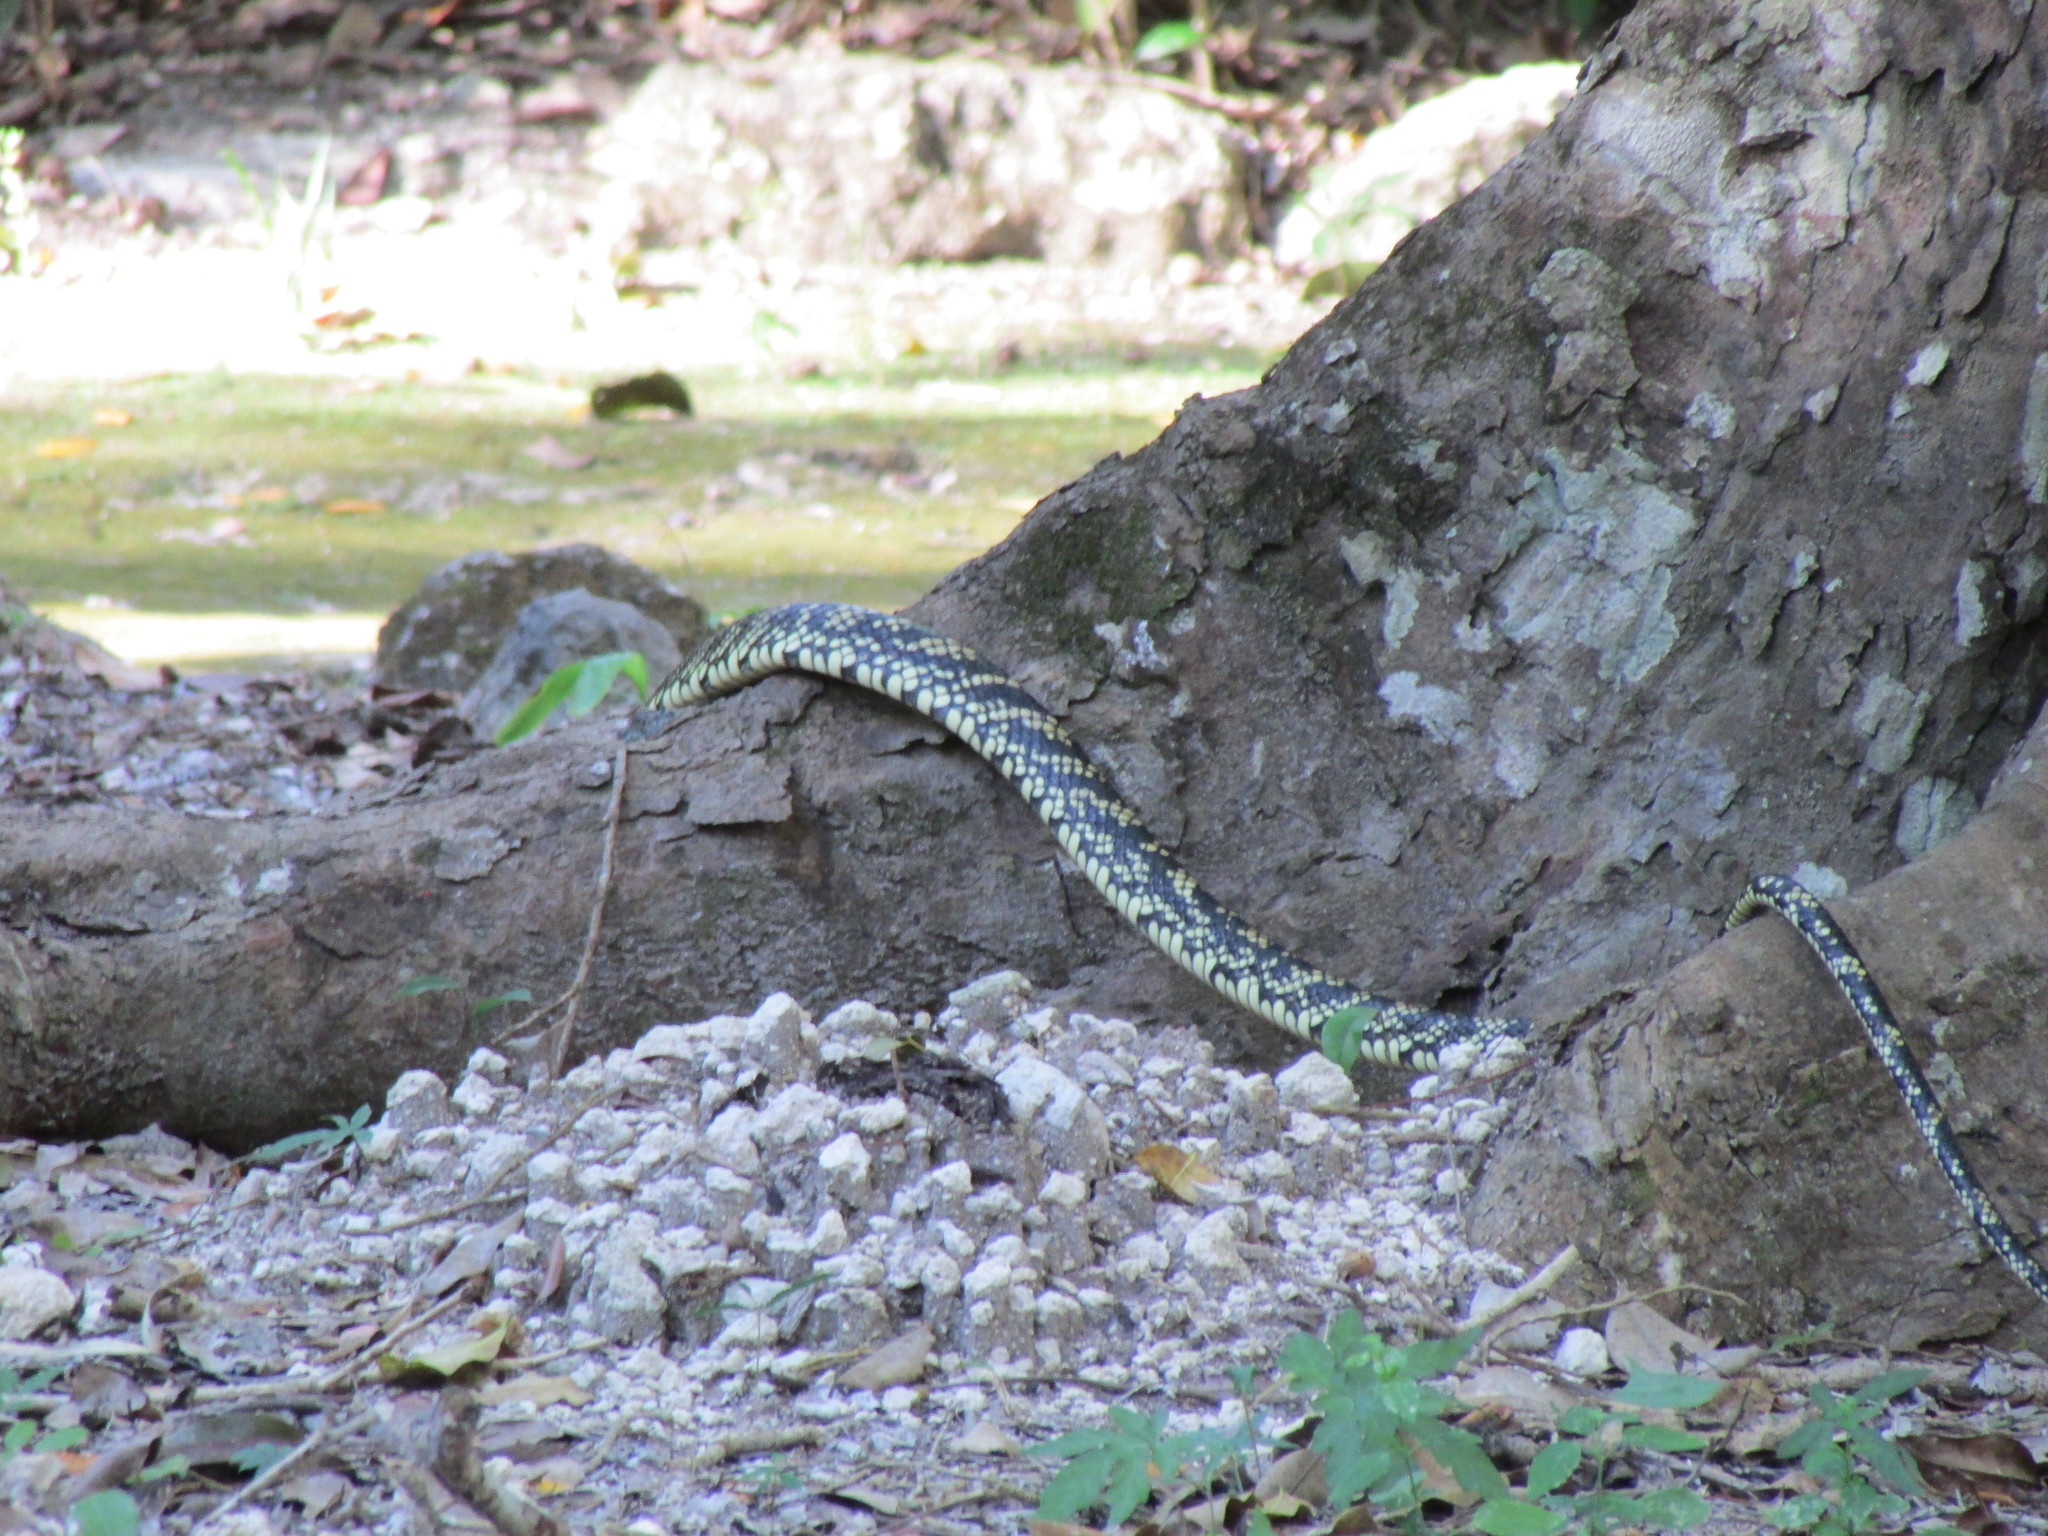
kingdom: Animalia
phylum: Chordata
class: Squamata
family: Colubridae
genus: Spilotes
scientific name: Spilotes pullatus
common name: Chicken snake
